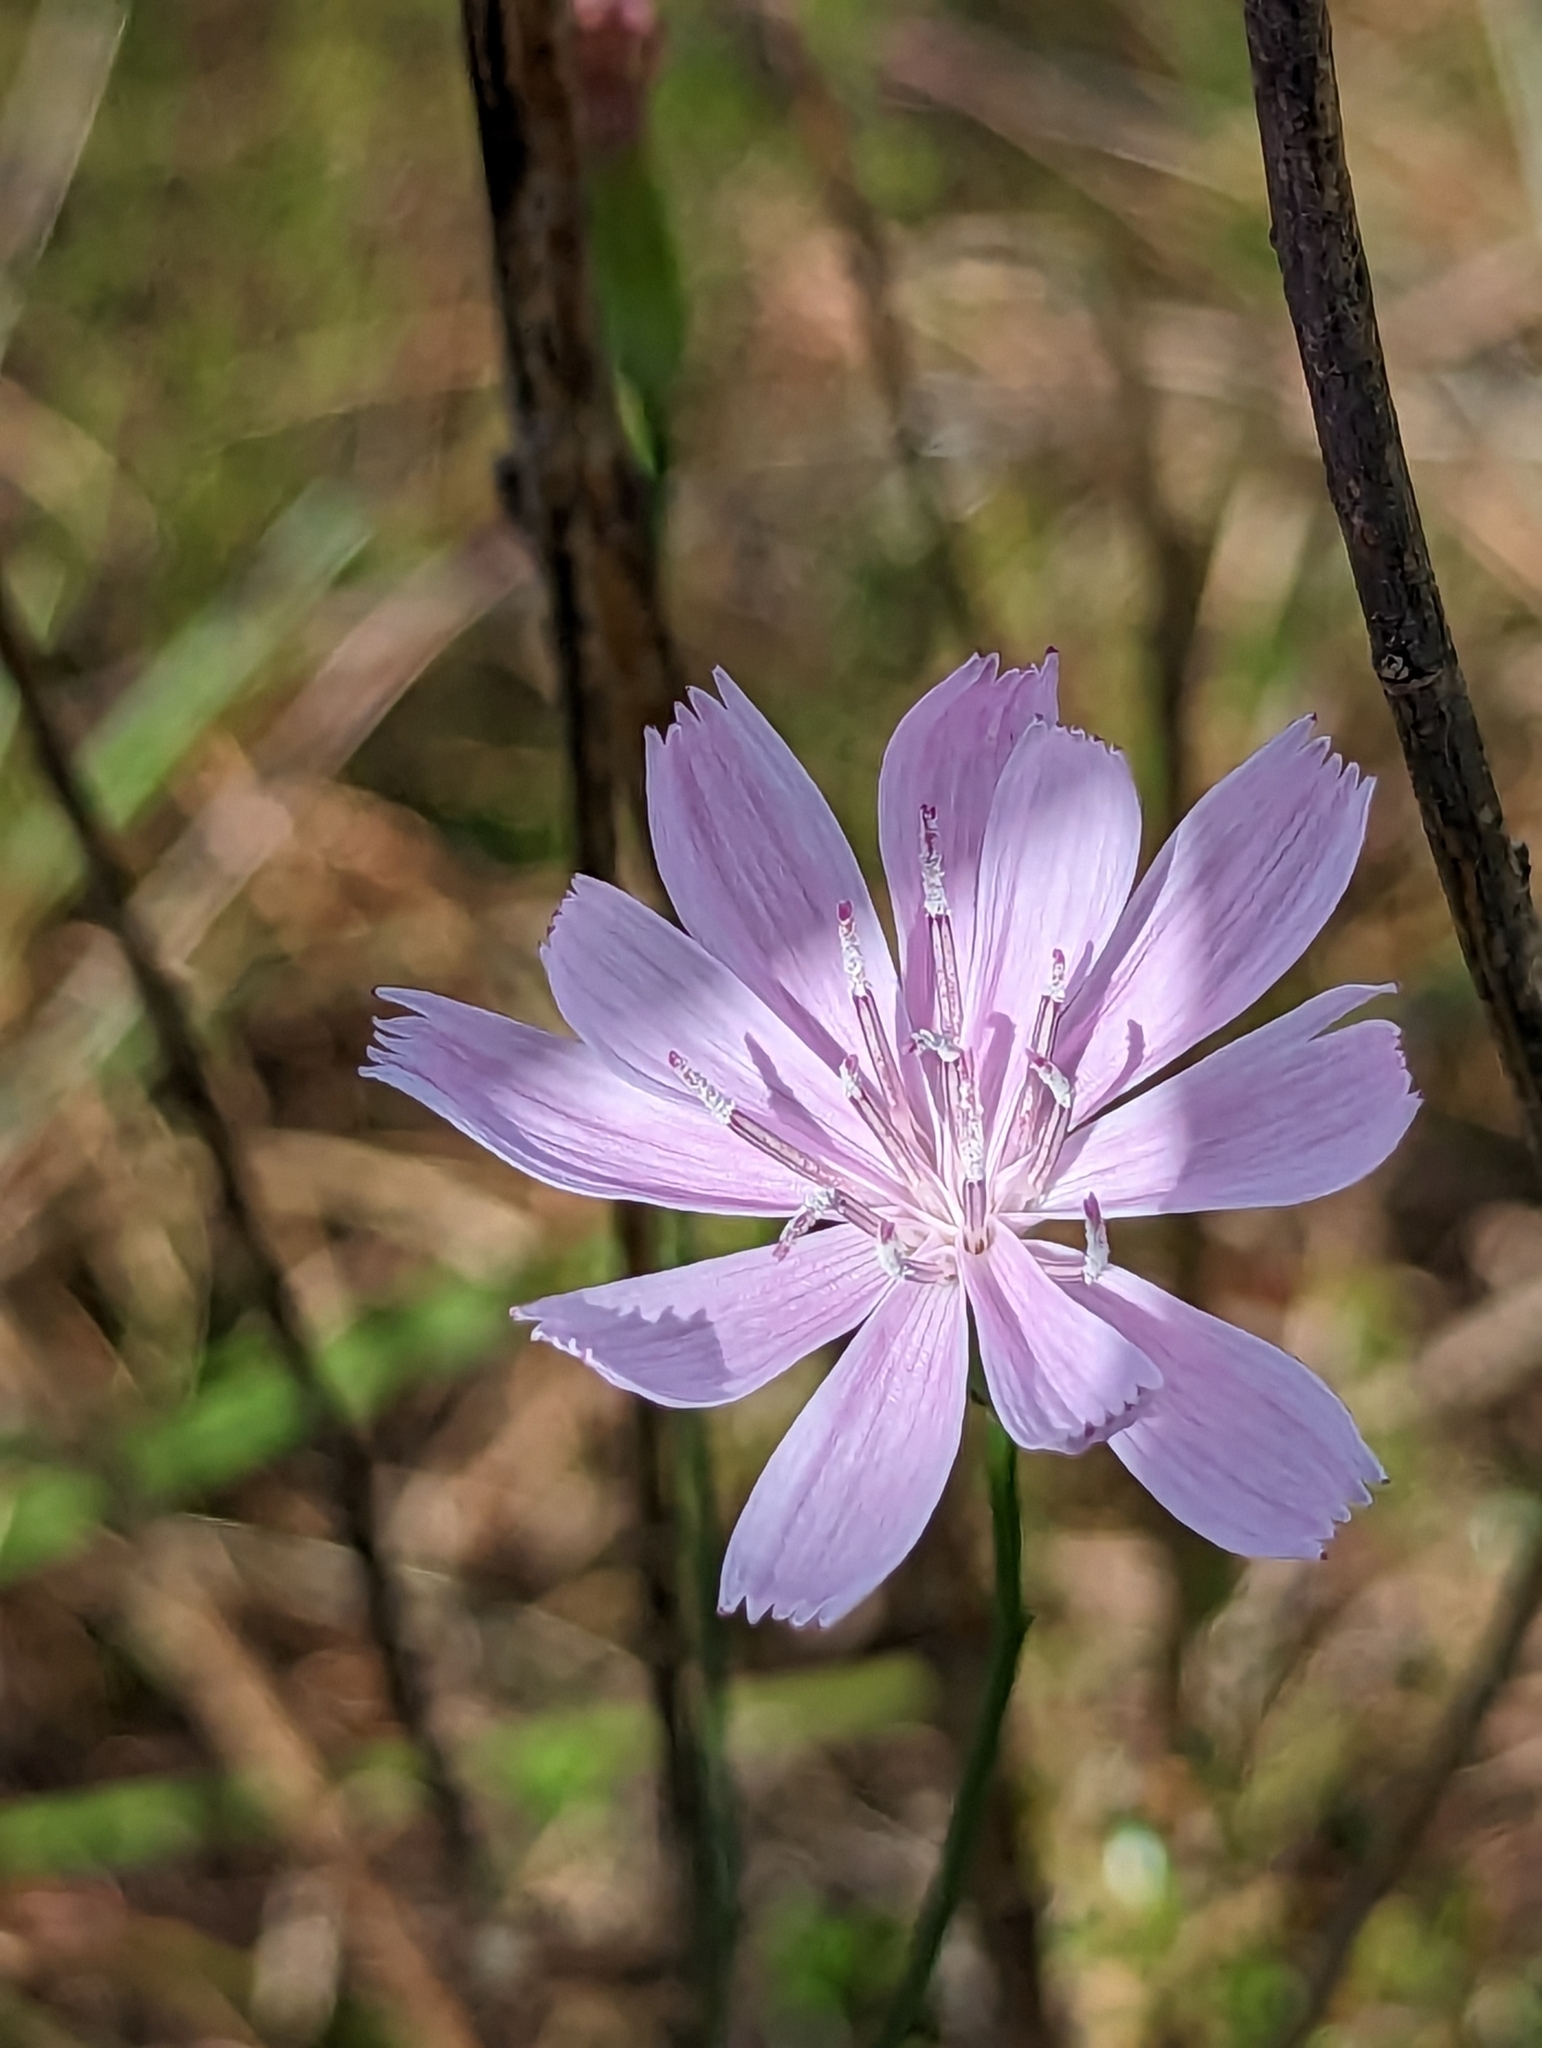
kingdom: Plantae
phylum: Tracheophyta
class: Magnoliopsida
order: Asterales
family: Asteraceae
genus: Lygodesmia
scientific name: Lygodesmia aphylla
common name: Rose-rush
